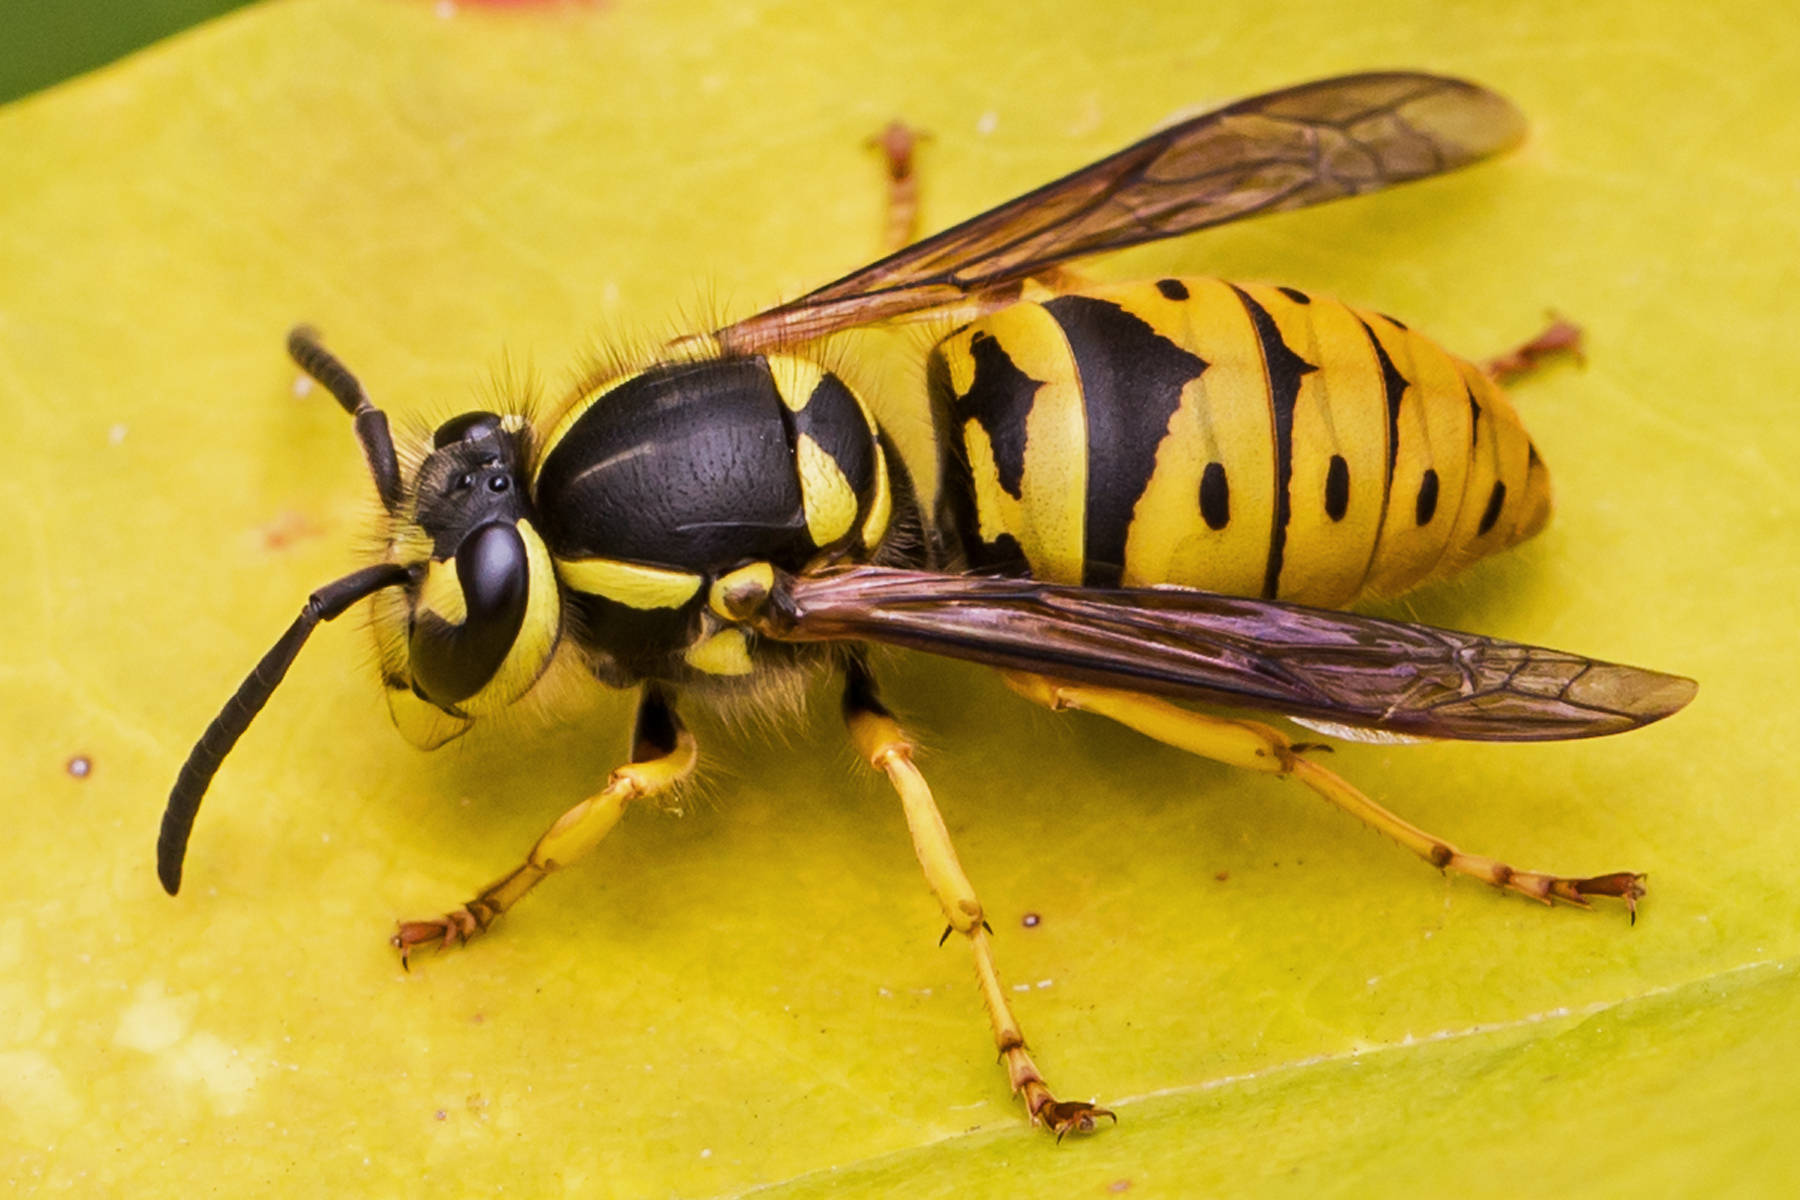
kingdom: Animalia
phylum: Arthropoda
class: Insecta
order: Hymenoptera
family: Vespidae
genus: Vespula
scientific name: Vespula maculifrons
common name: Eastern yellowjacket
